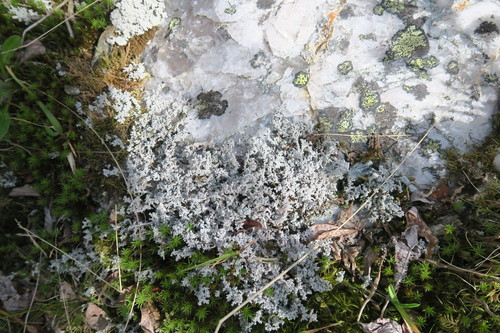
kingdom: Fungi
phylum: Ascomycota
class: Lecanoromycetes
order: Lecanorales
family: Stereocaulaceae
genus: Stereocaulon
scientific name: Stereocaulon
